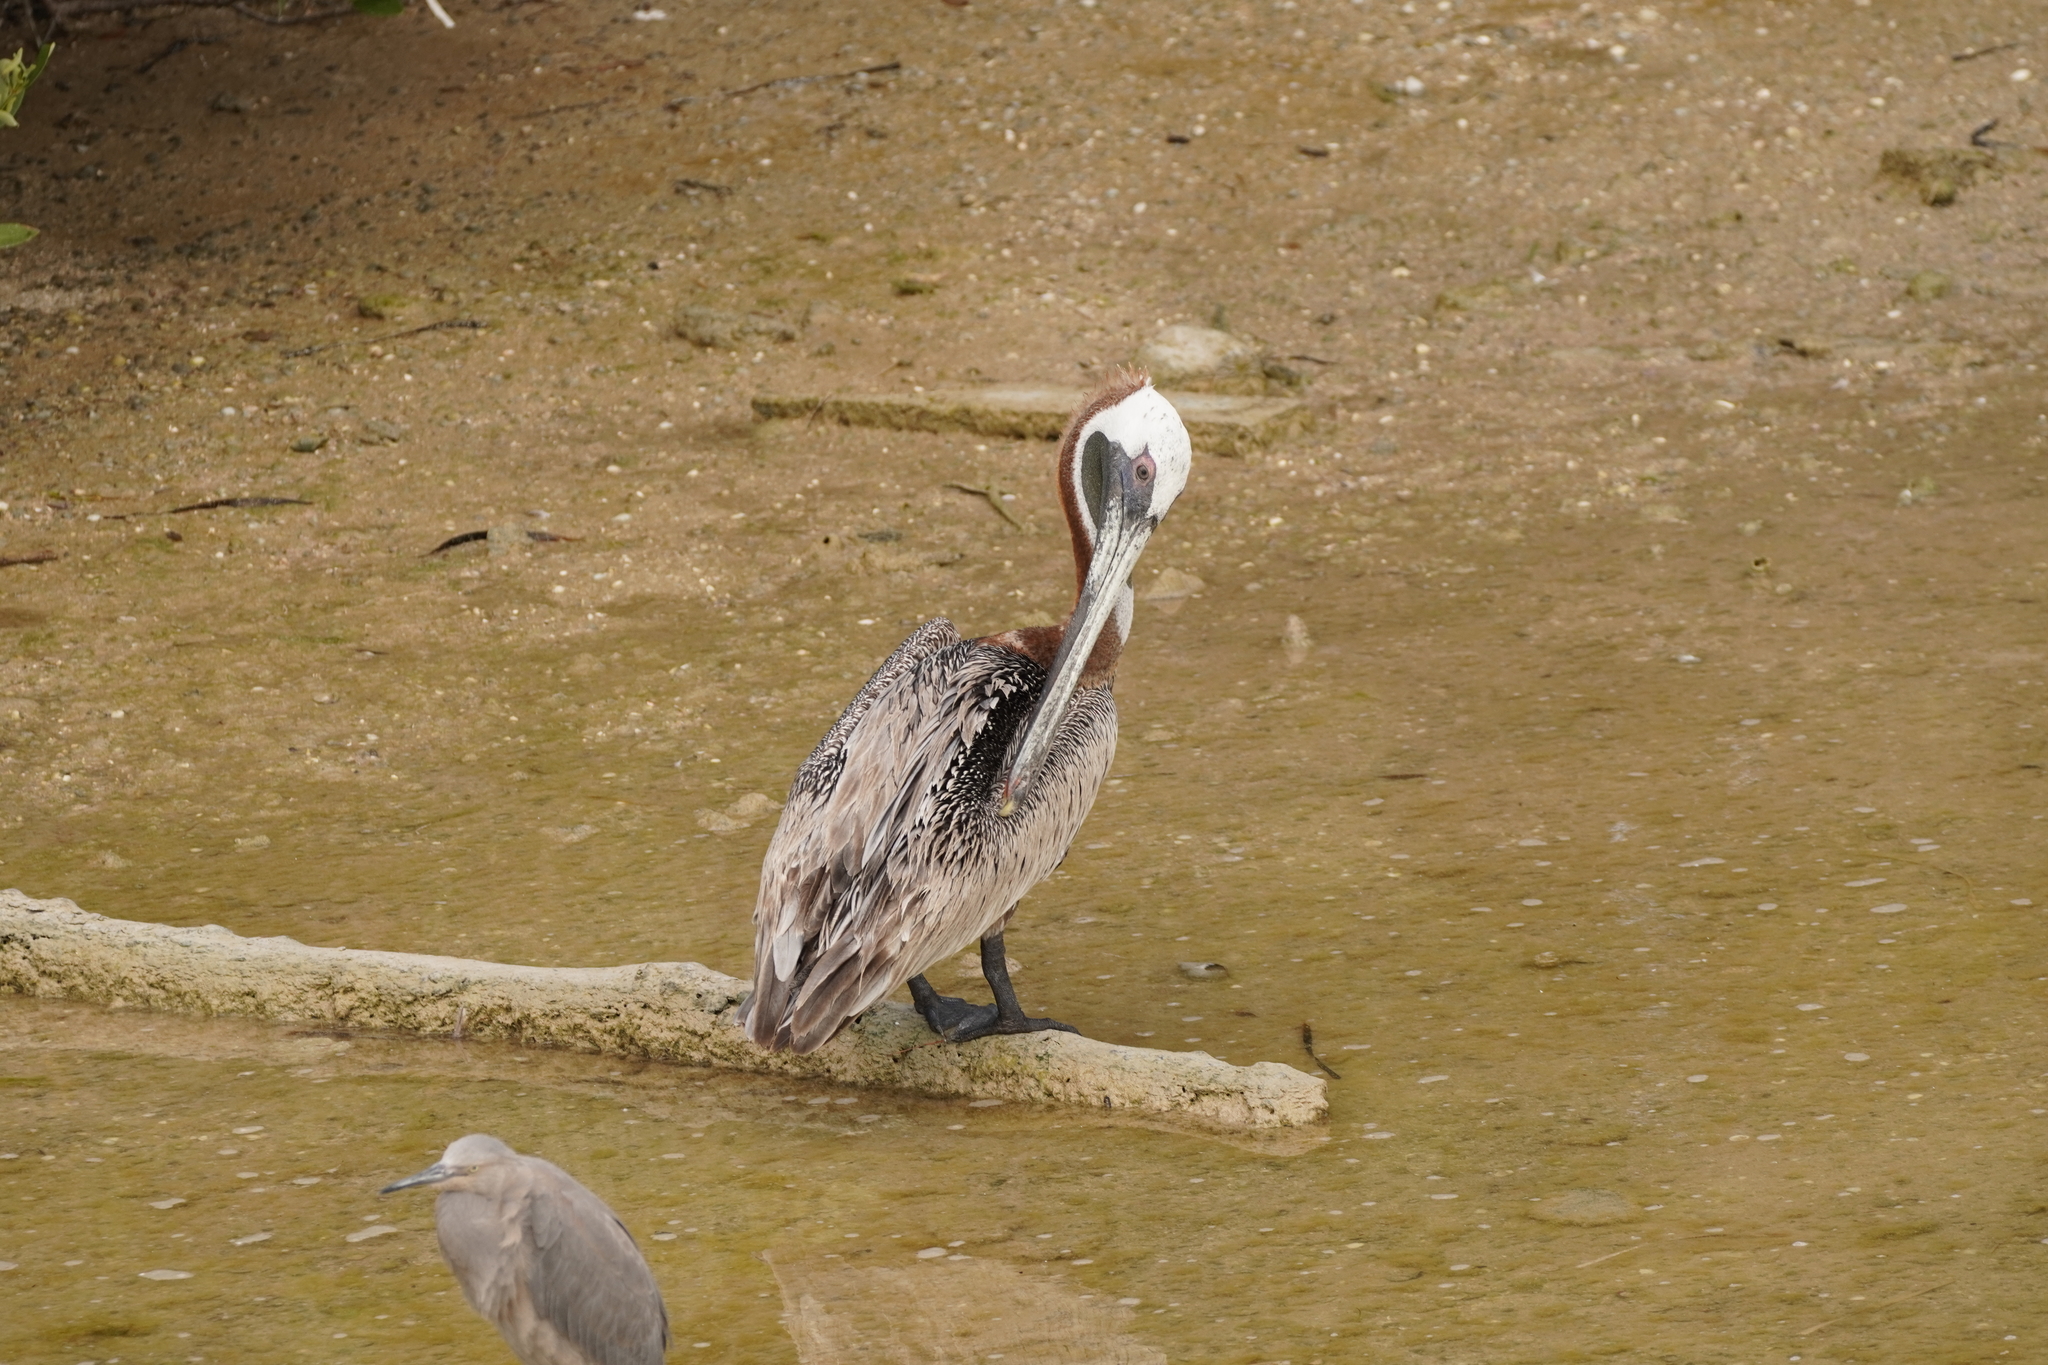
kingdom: Animalia
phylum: Chordata
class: Aves
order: Pelecaniformes
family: Pelecanidae
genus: Pelecanus
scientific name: Pelecanus occidentalis
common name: Brown pelican
